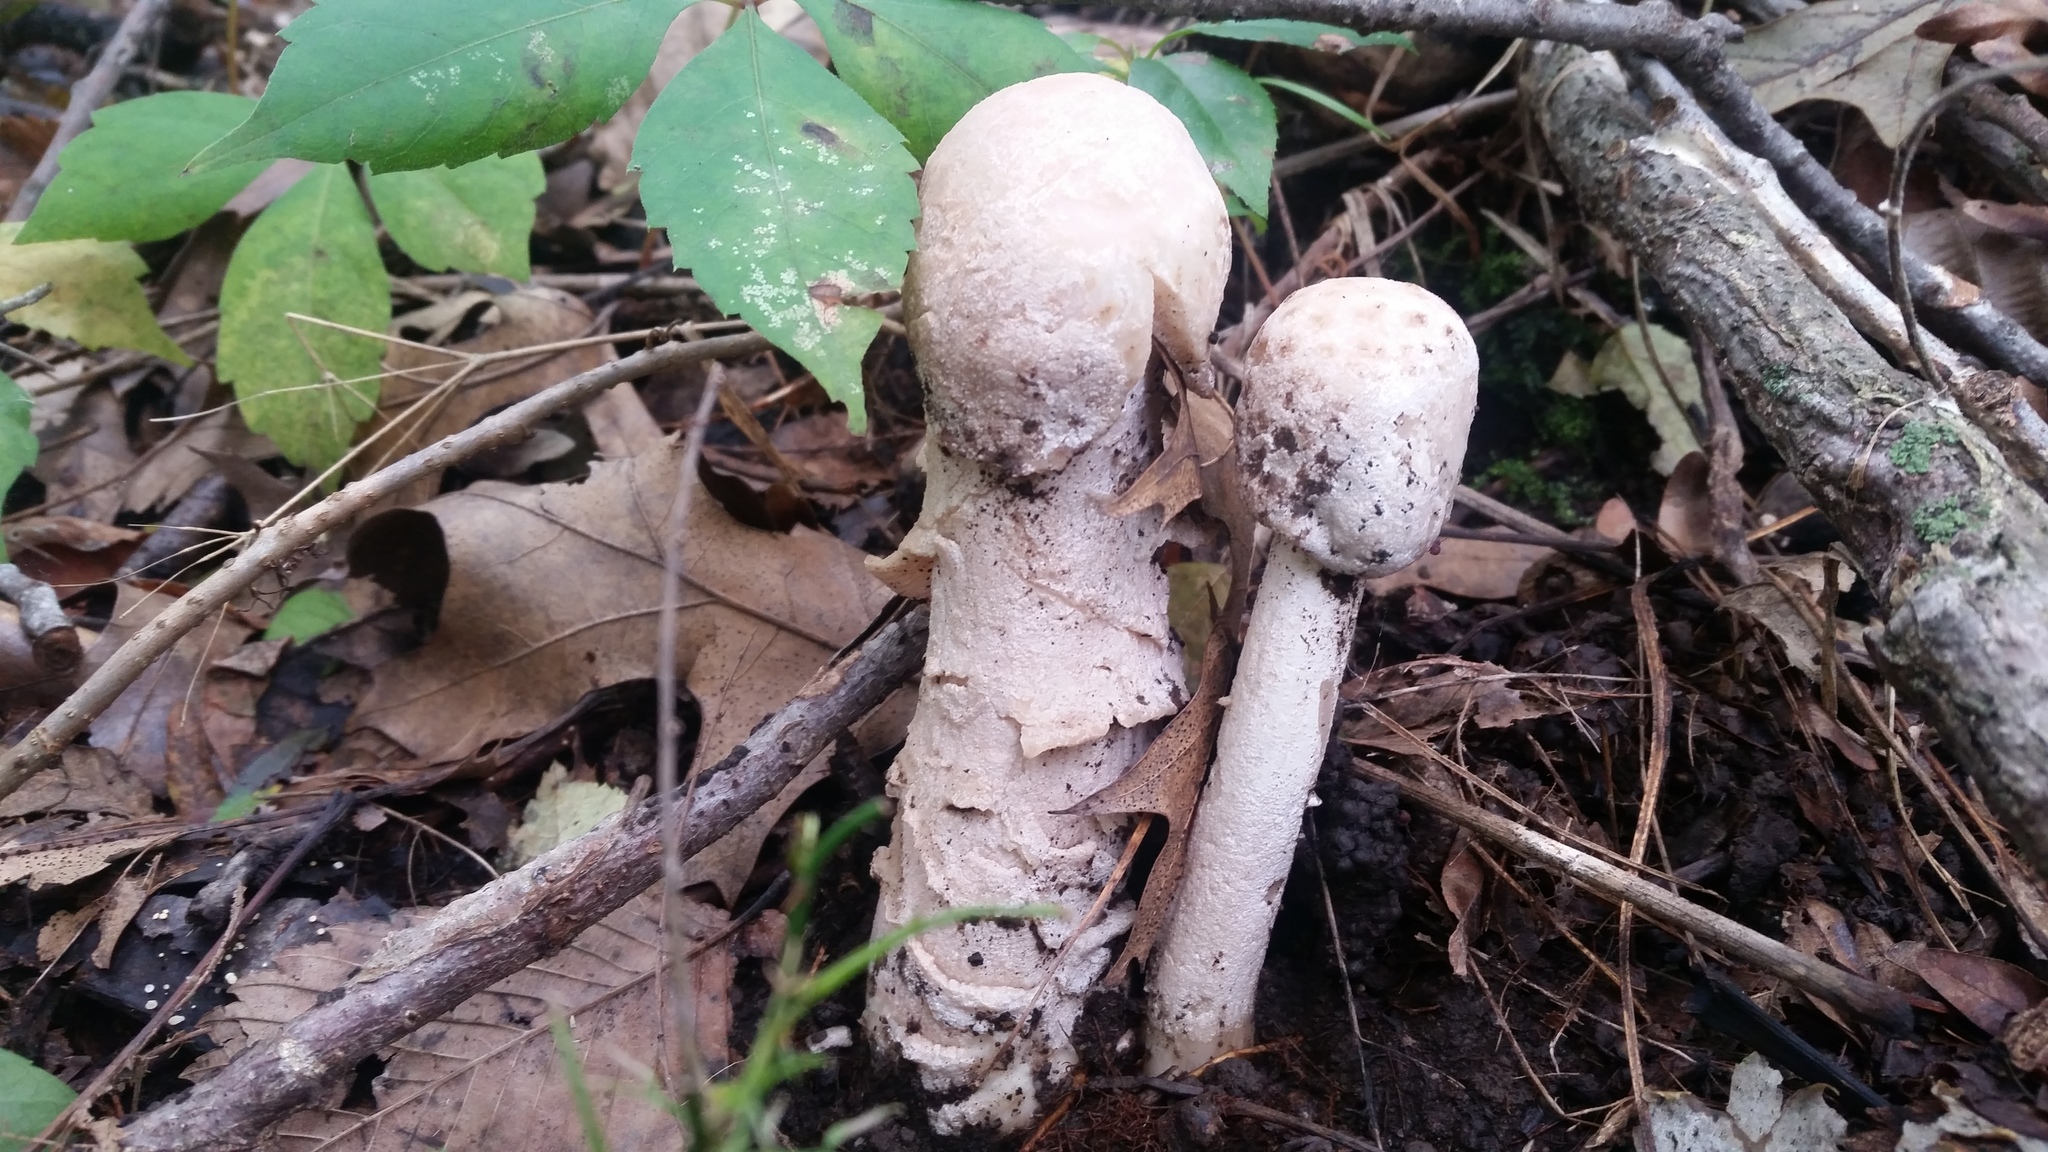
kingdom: Fungi
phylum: Ascomycota
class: Sordariomycetes
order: Hypocreales
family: Hypocreaceae
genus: Hypomyces
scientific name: Hypomyces hyalinus
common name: Amanita mold
